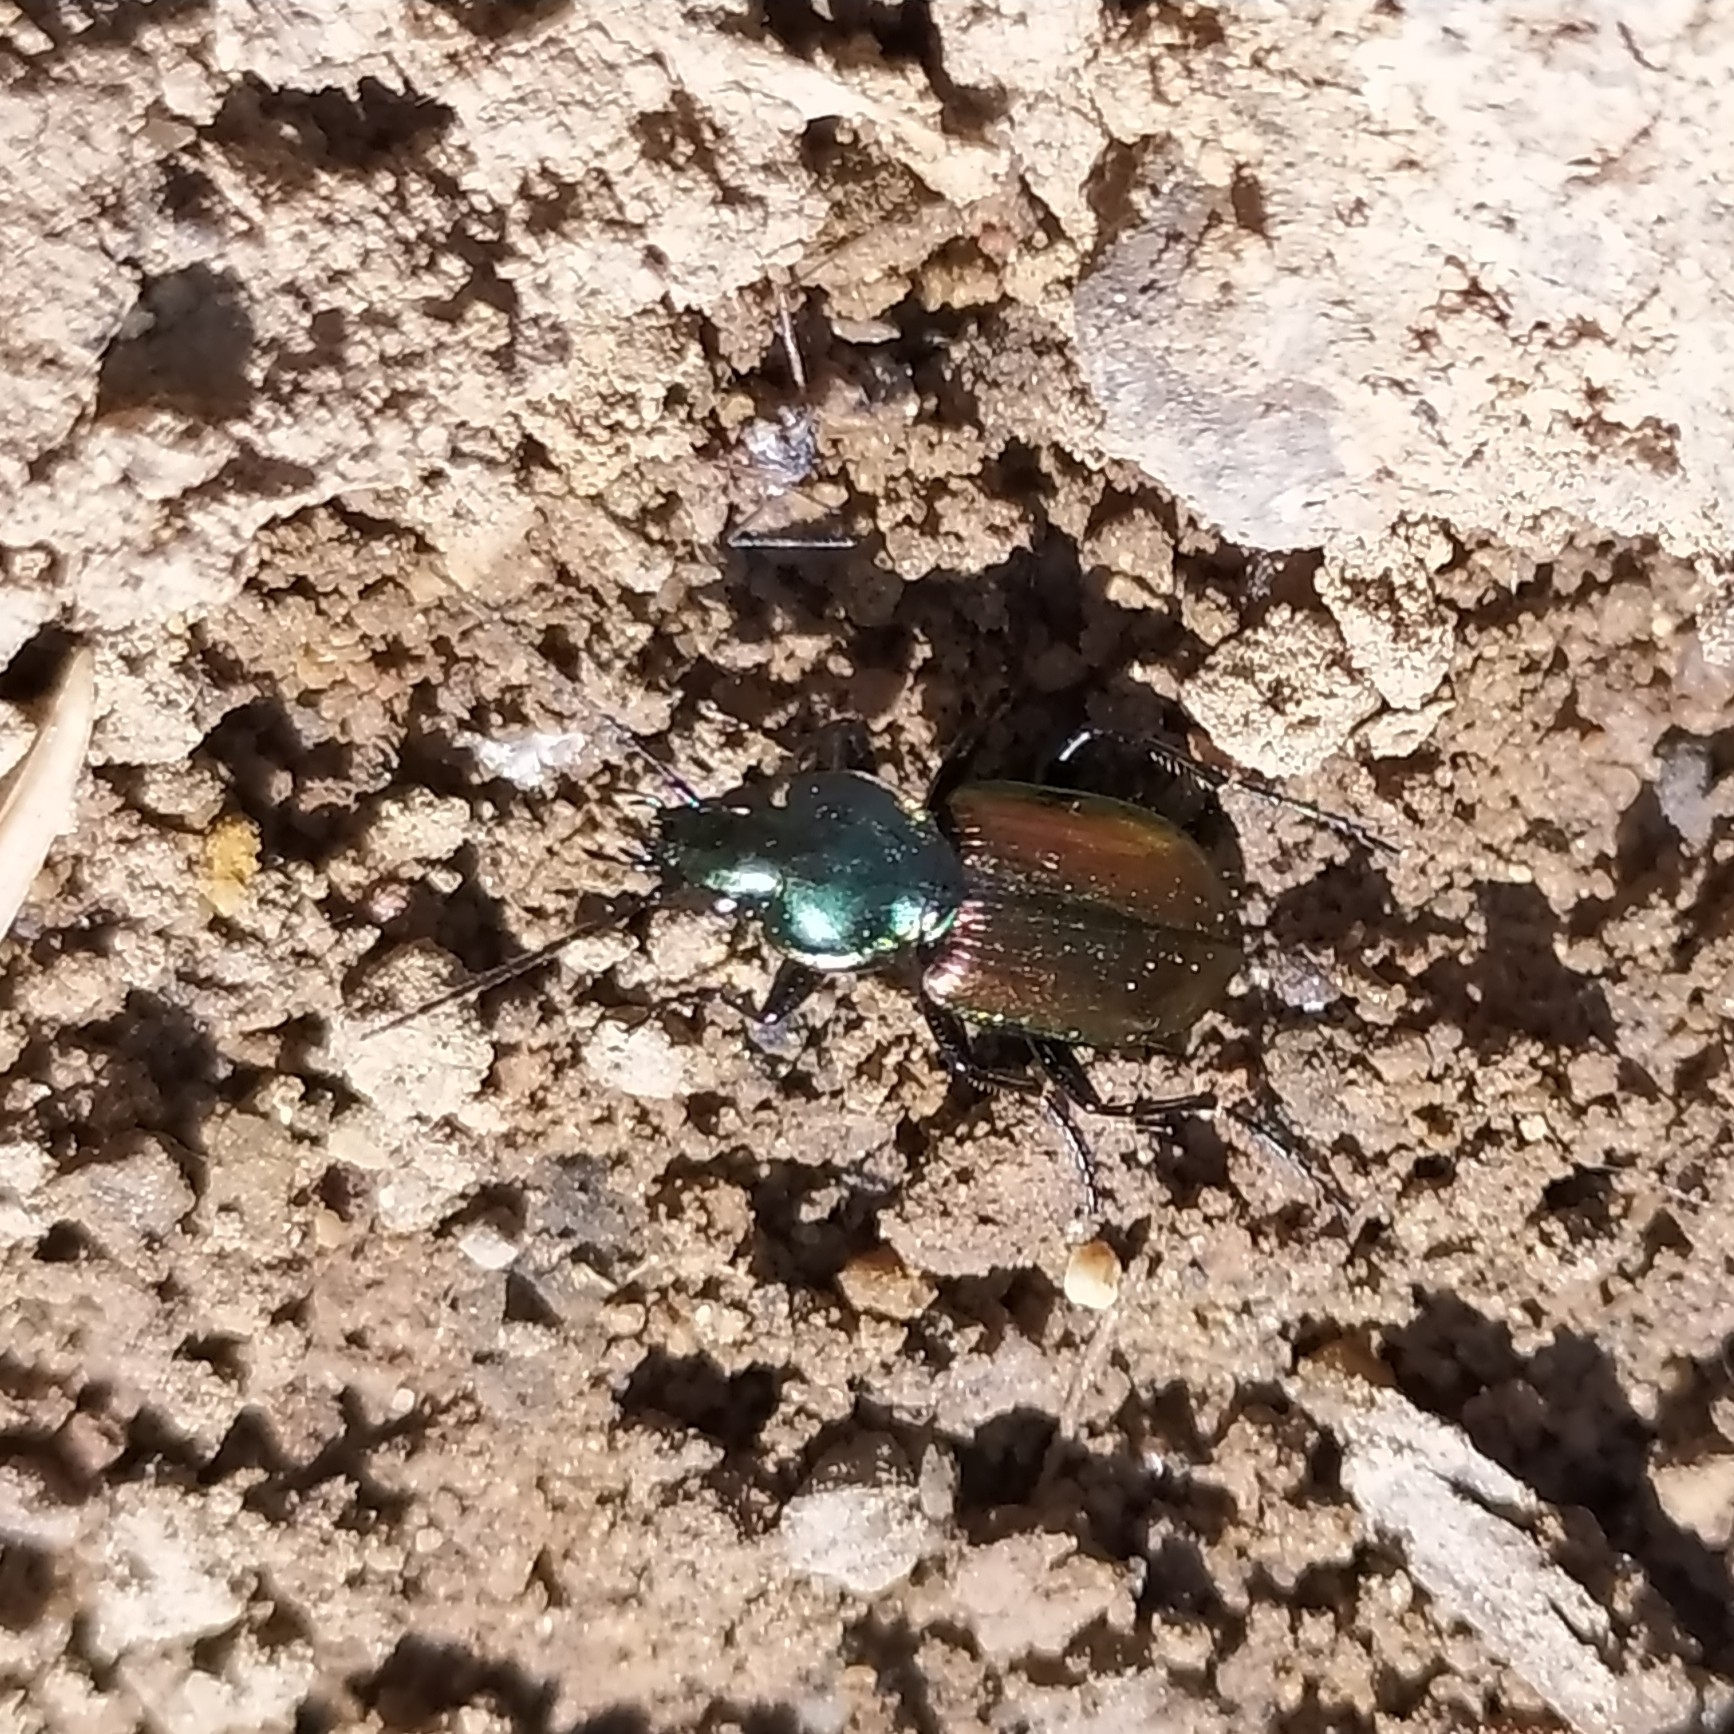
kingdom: Animalia
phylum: Arthropoda
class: Insecta
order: Coleoptera
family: Carabidae
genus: Agonum
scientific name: Agonum sexpunctatum
